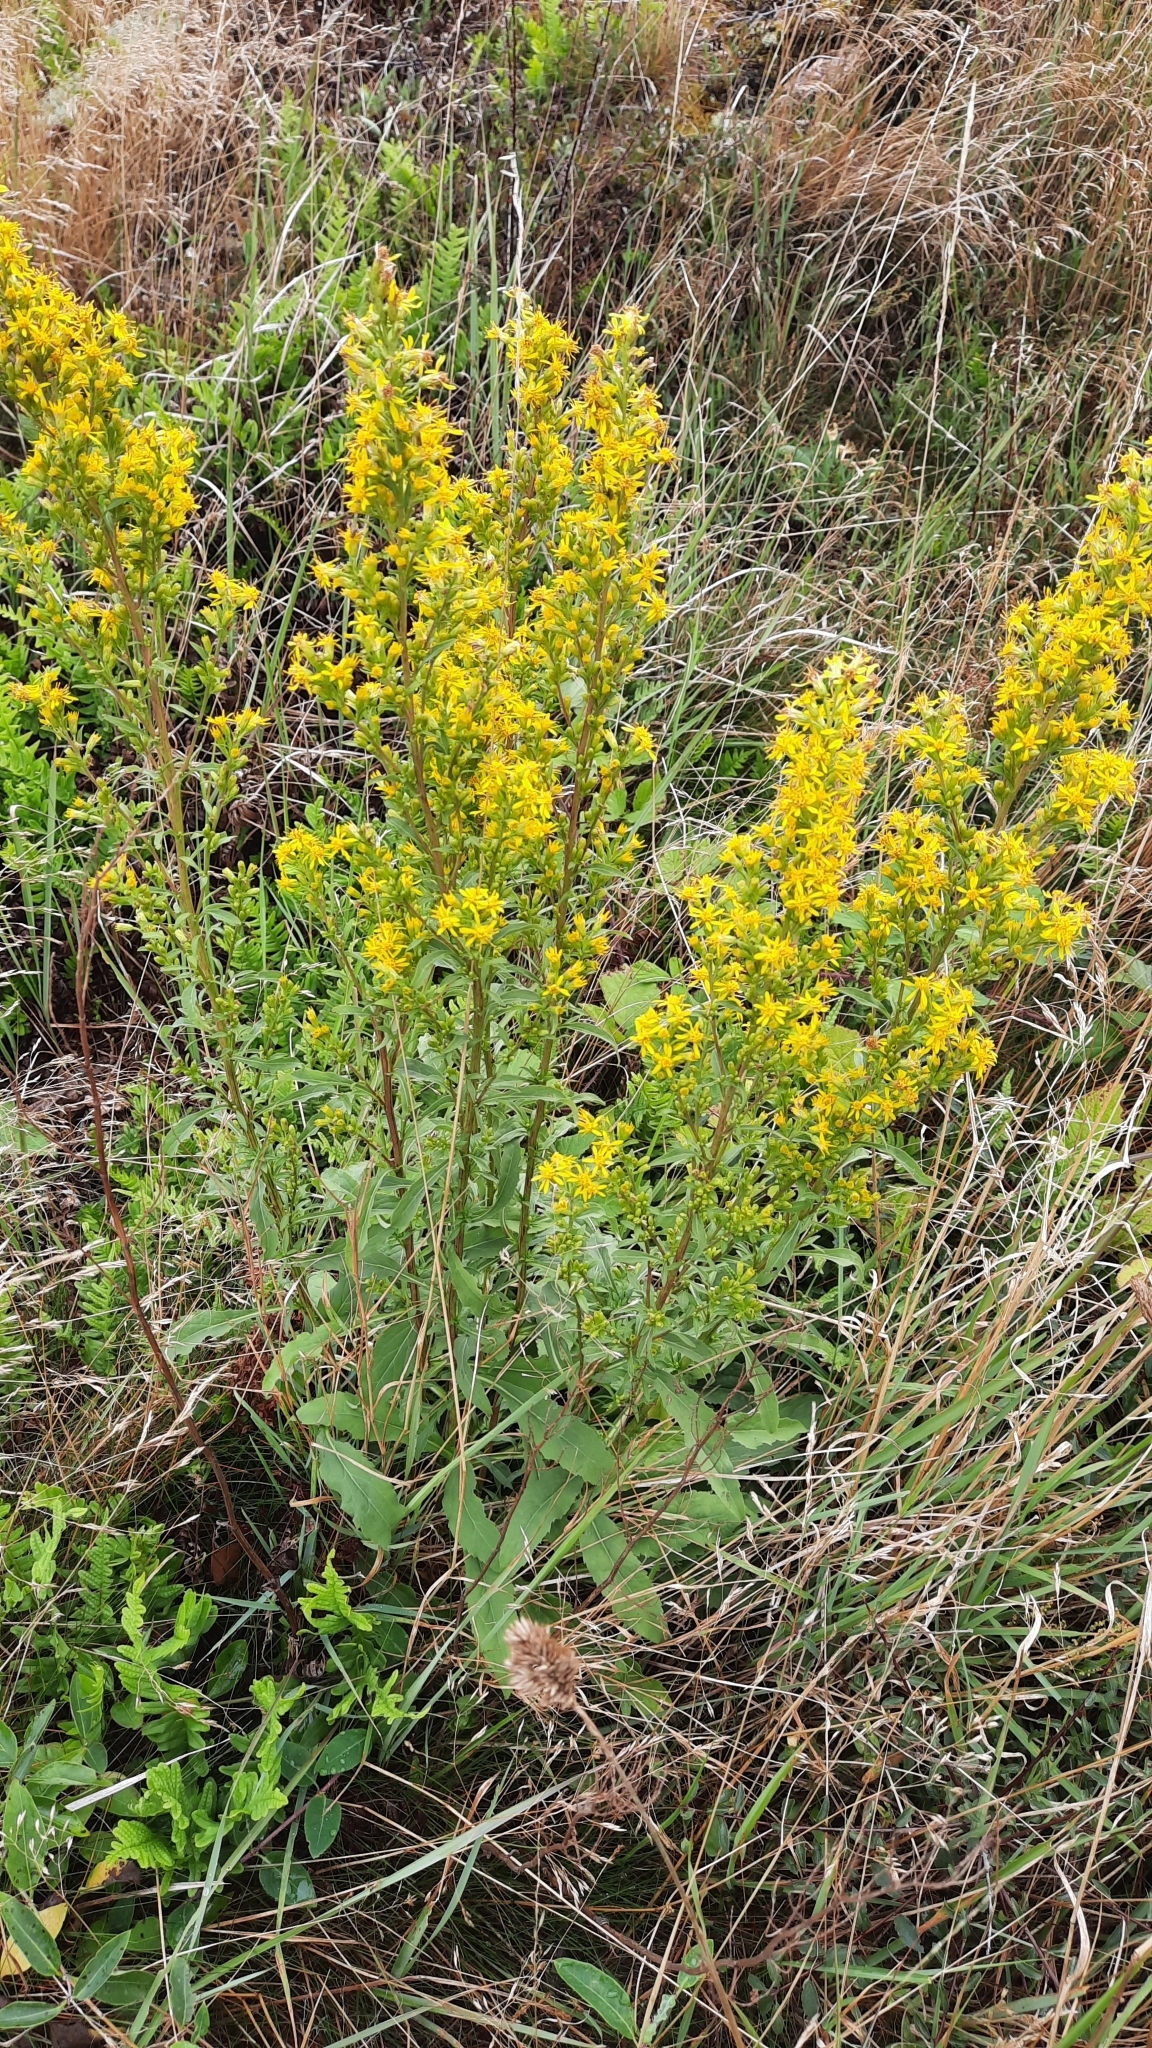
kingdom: Plantae
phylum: Tracheophyta
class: Magnoliopsida
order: Asterales
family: Asteraceae
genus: Solidago
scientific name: Solidago virgaurea
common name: Goldenrod
